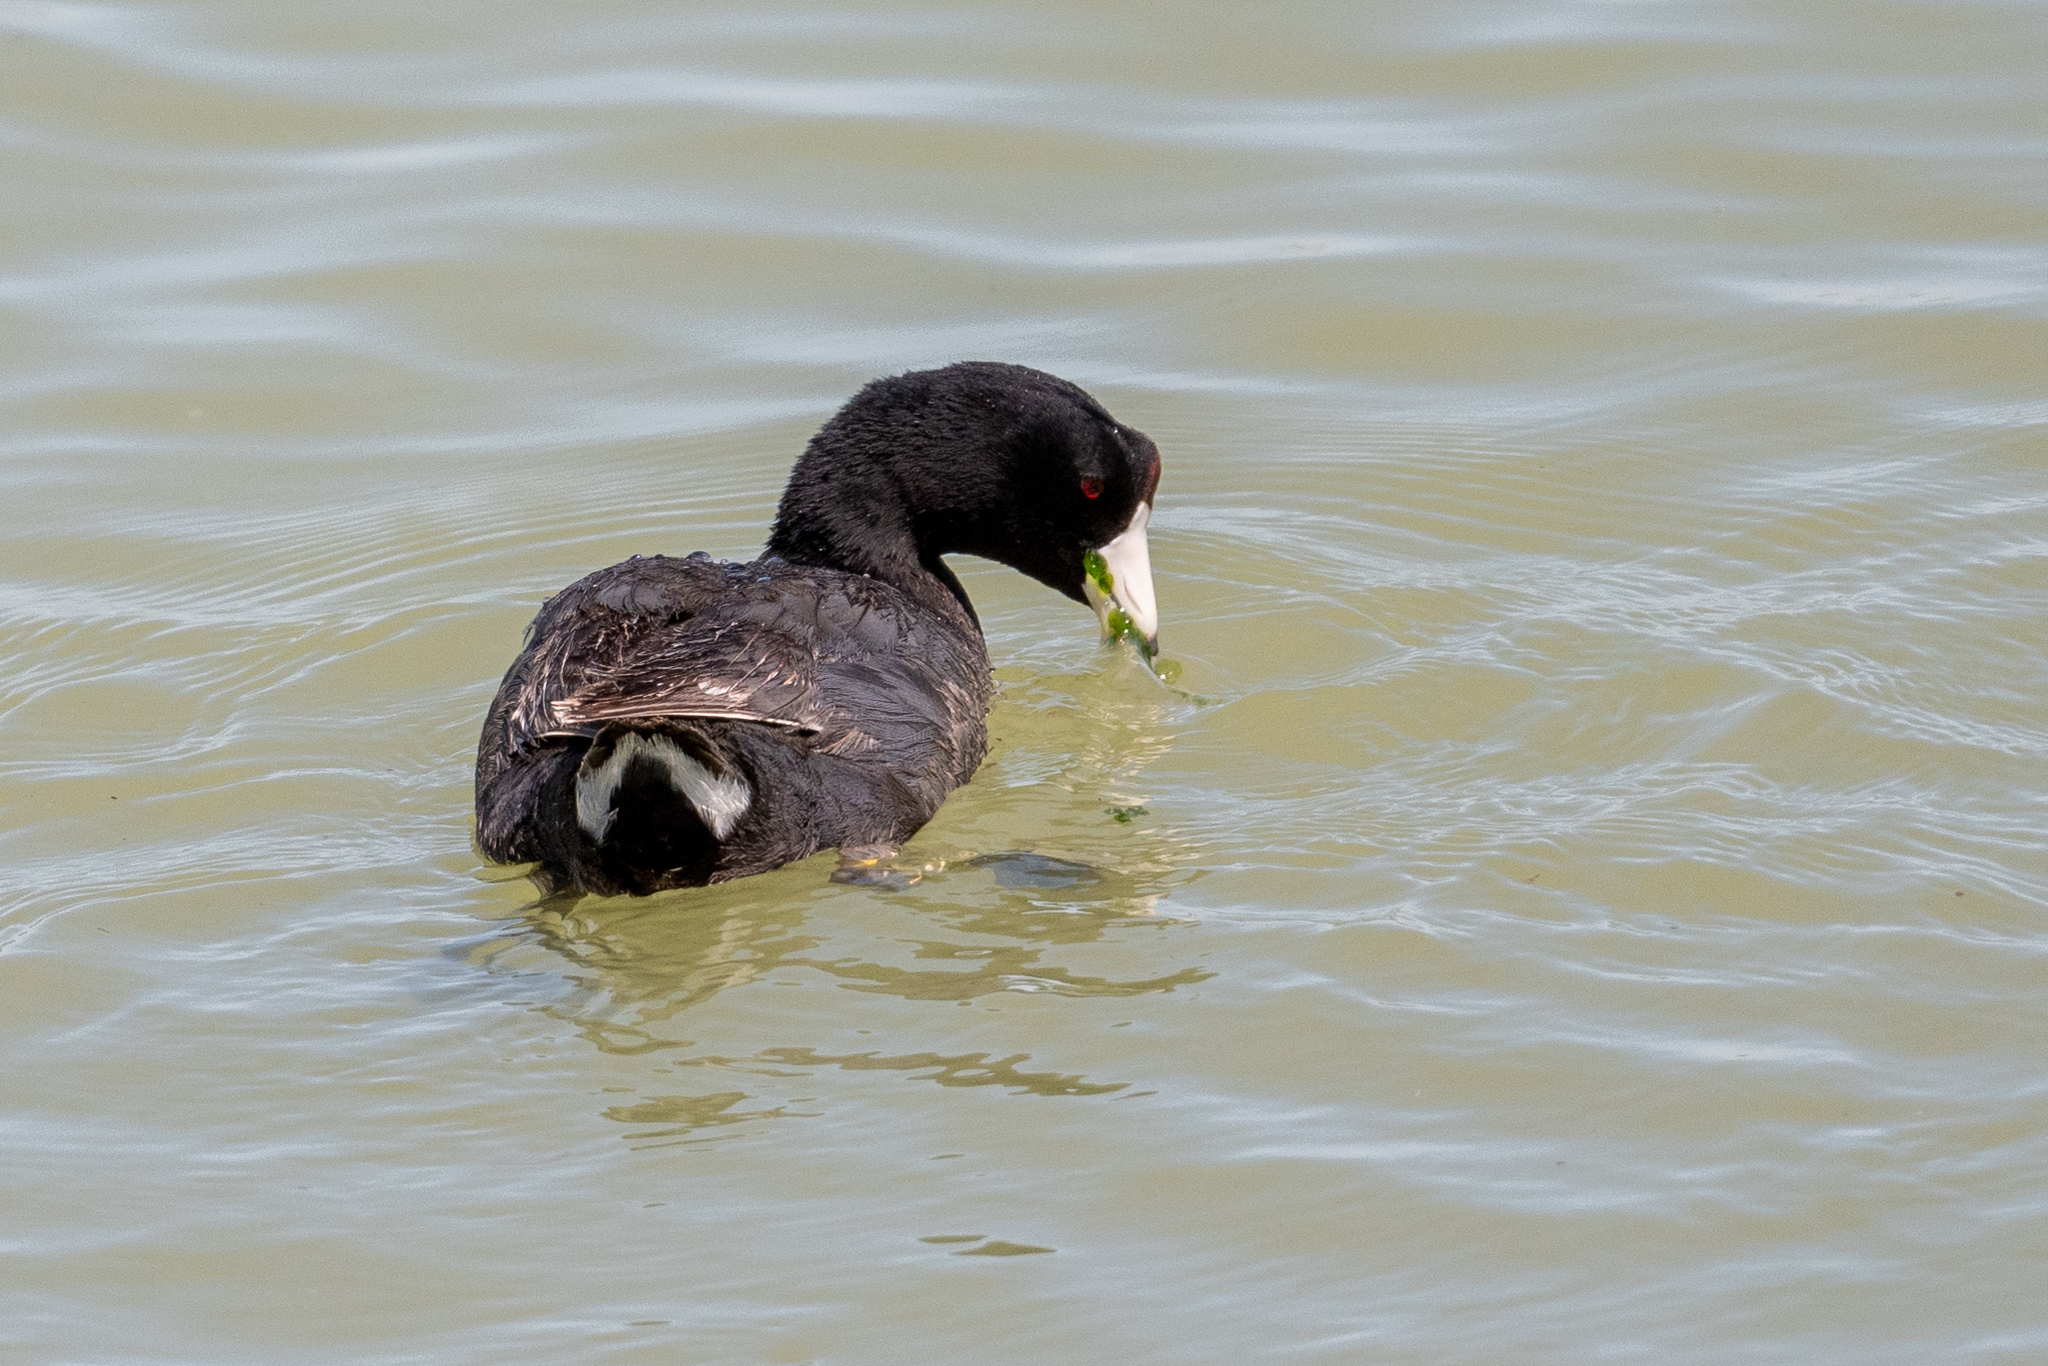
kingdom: Animalia
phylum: Chordata
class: Aves
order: Gruiformes
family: Rallidae
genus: Fulica
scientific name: Fulica americana
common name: American coot
